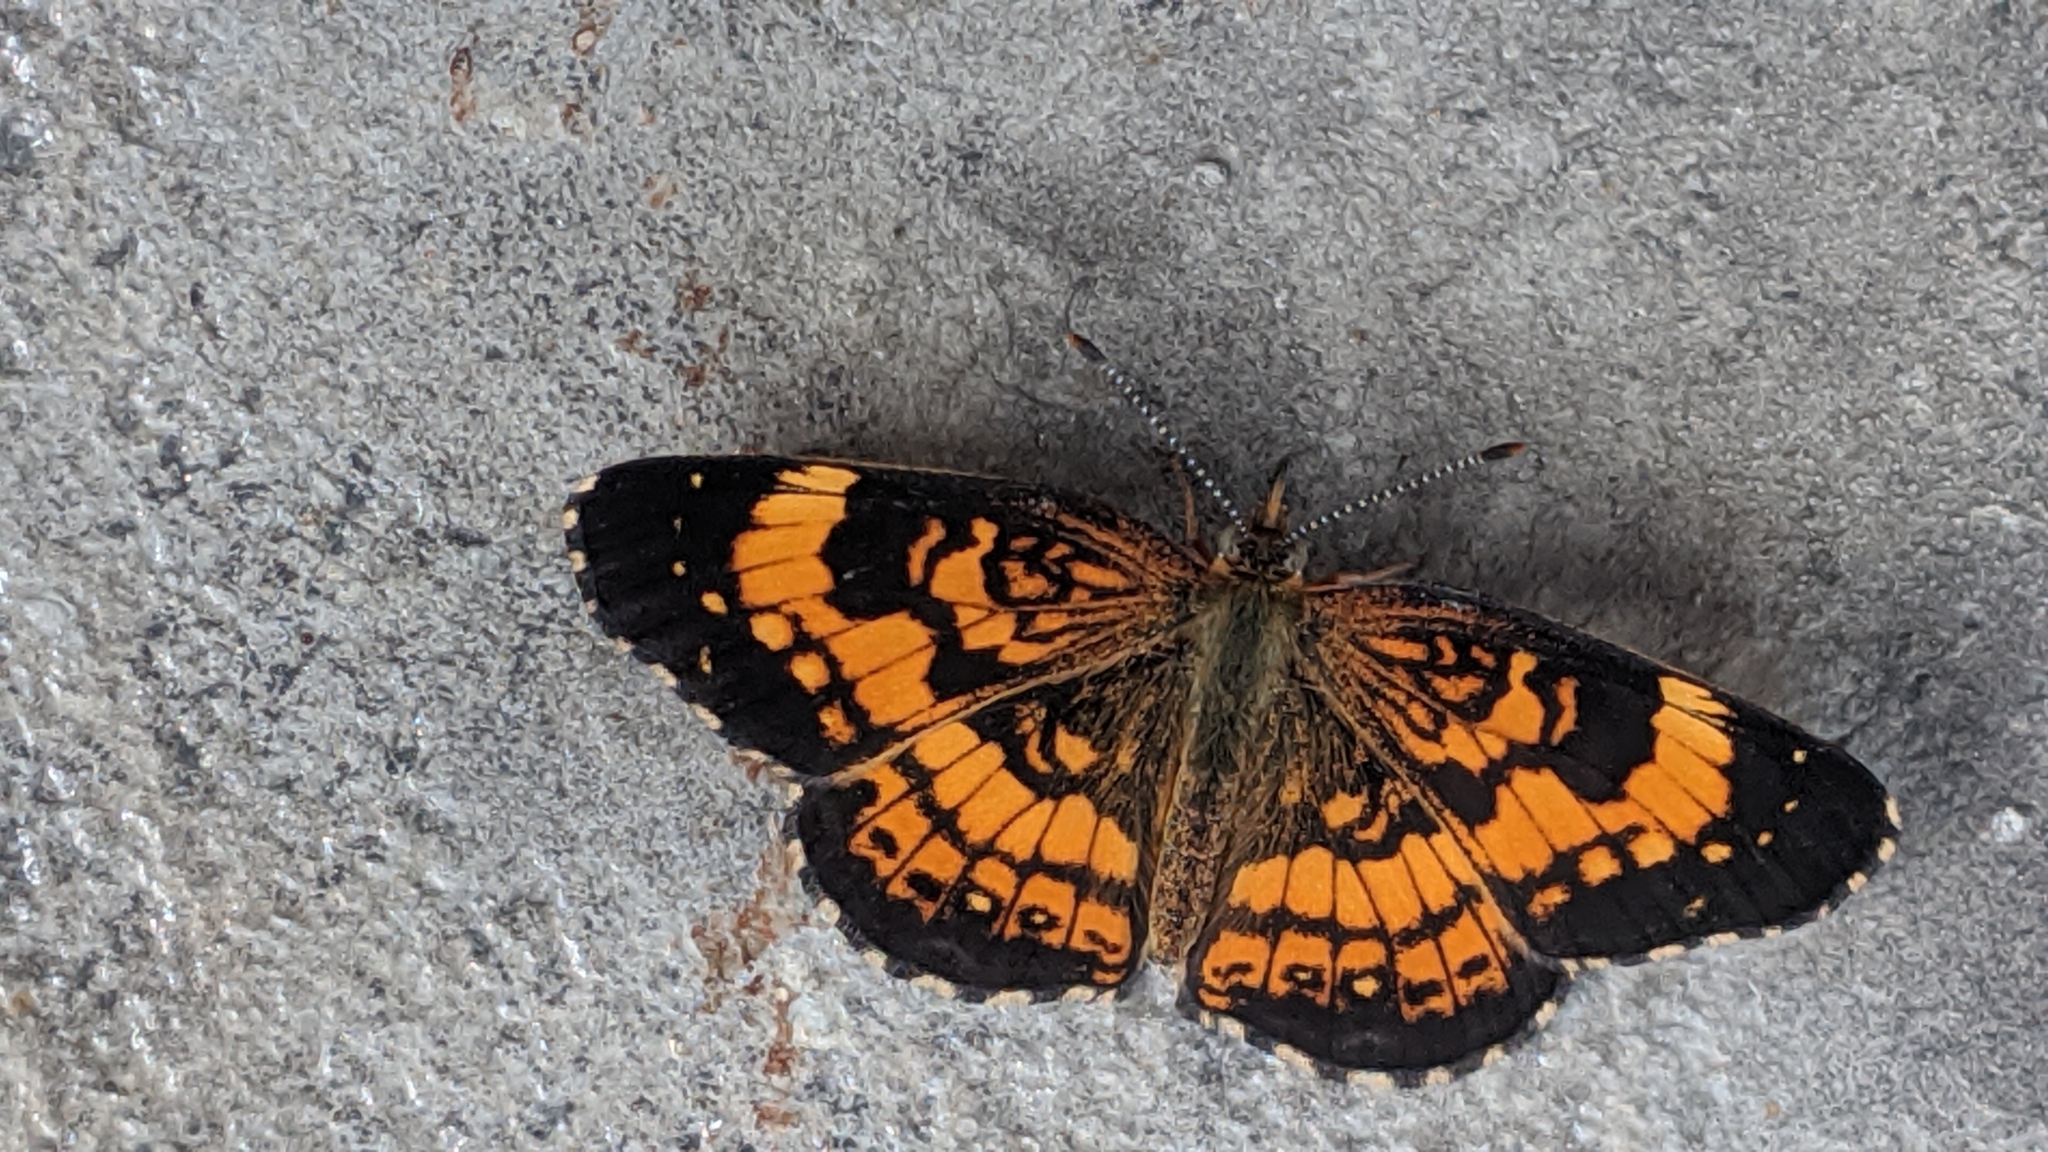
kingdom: Animalia
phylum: Arthropoda
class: Insecta
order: Lepidoptera
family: Nymphalidae
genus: Chlosyne
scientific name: Chlosyne nycteis
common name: Silvery checkerspot
